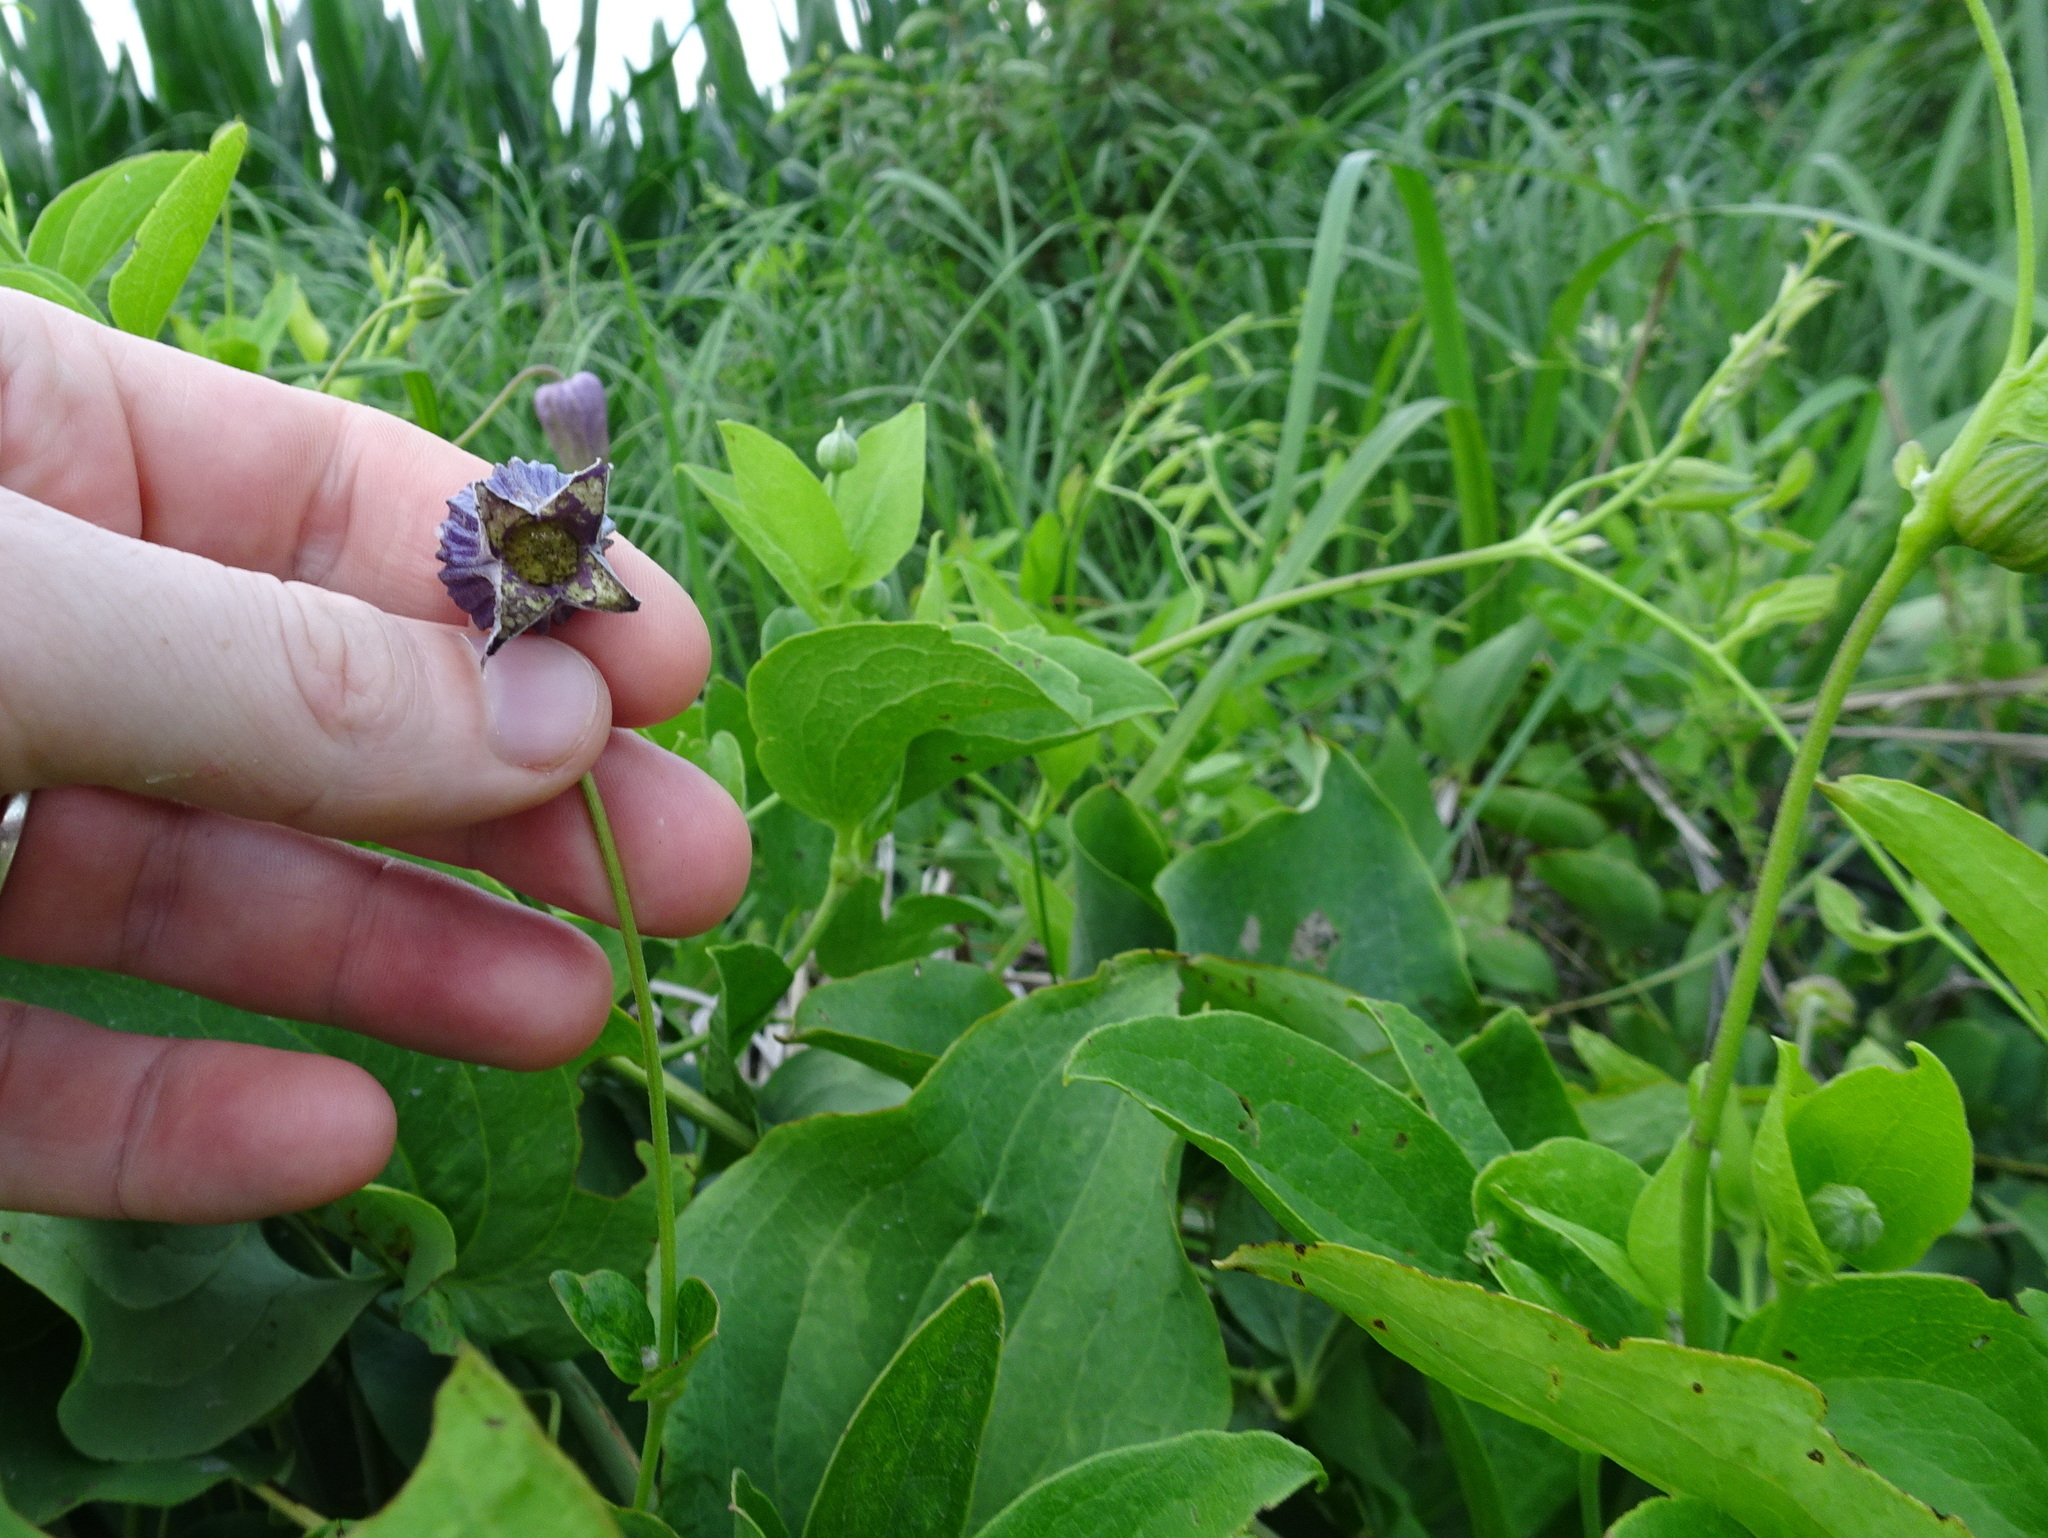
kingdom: Plantae
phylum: Tracheophyta
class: Magnoliopsida
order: Ranunculales
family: Ranunculaceae
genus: Clematis
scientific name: Clematis pitcheri
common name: Bellflower clematis
